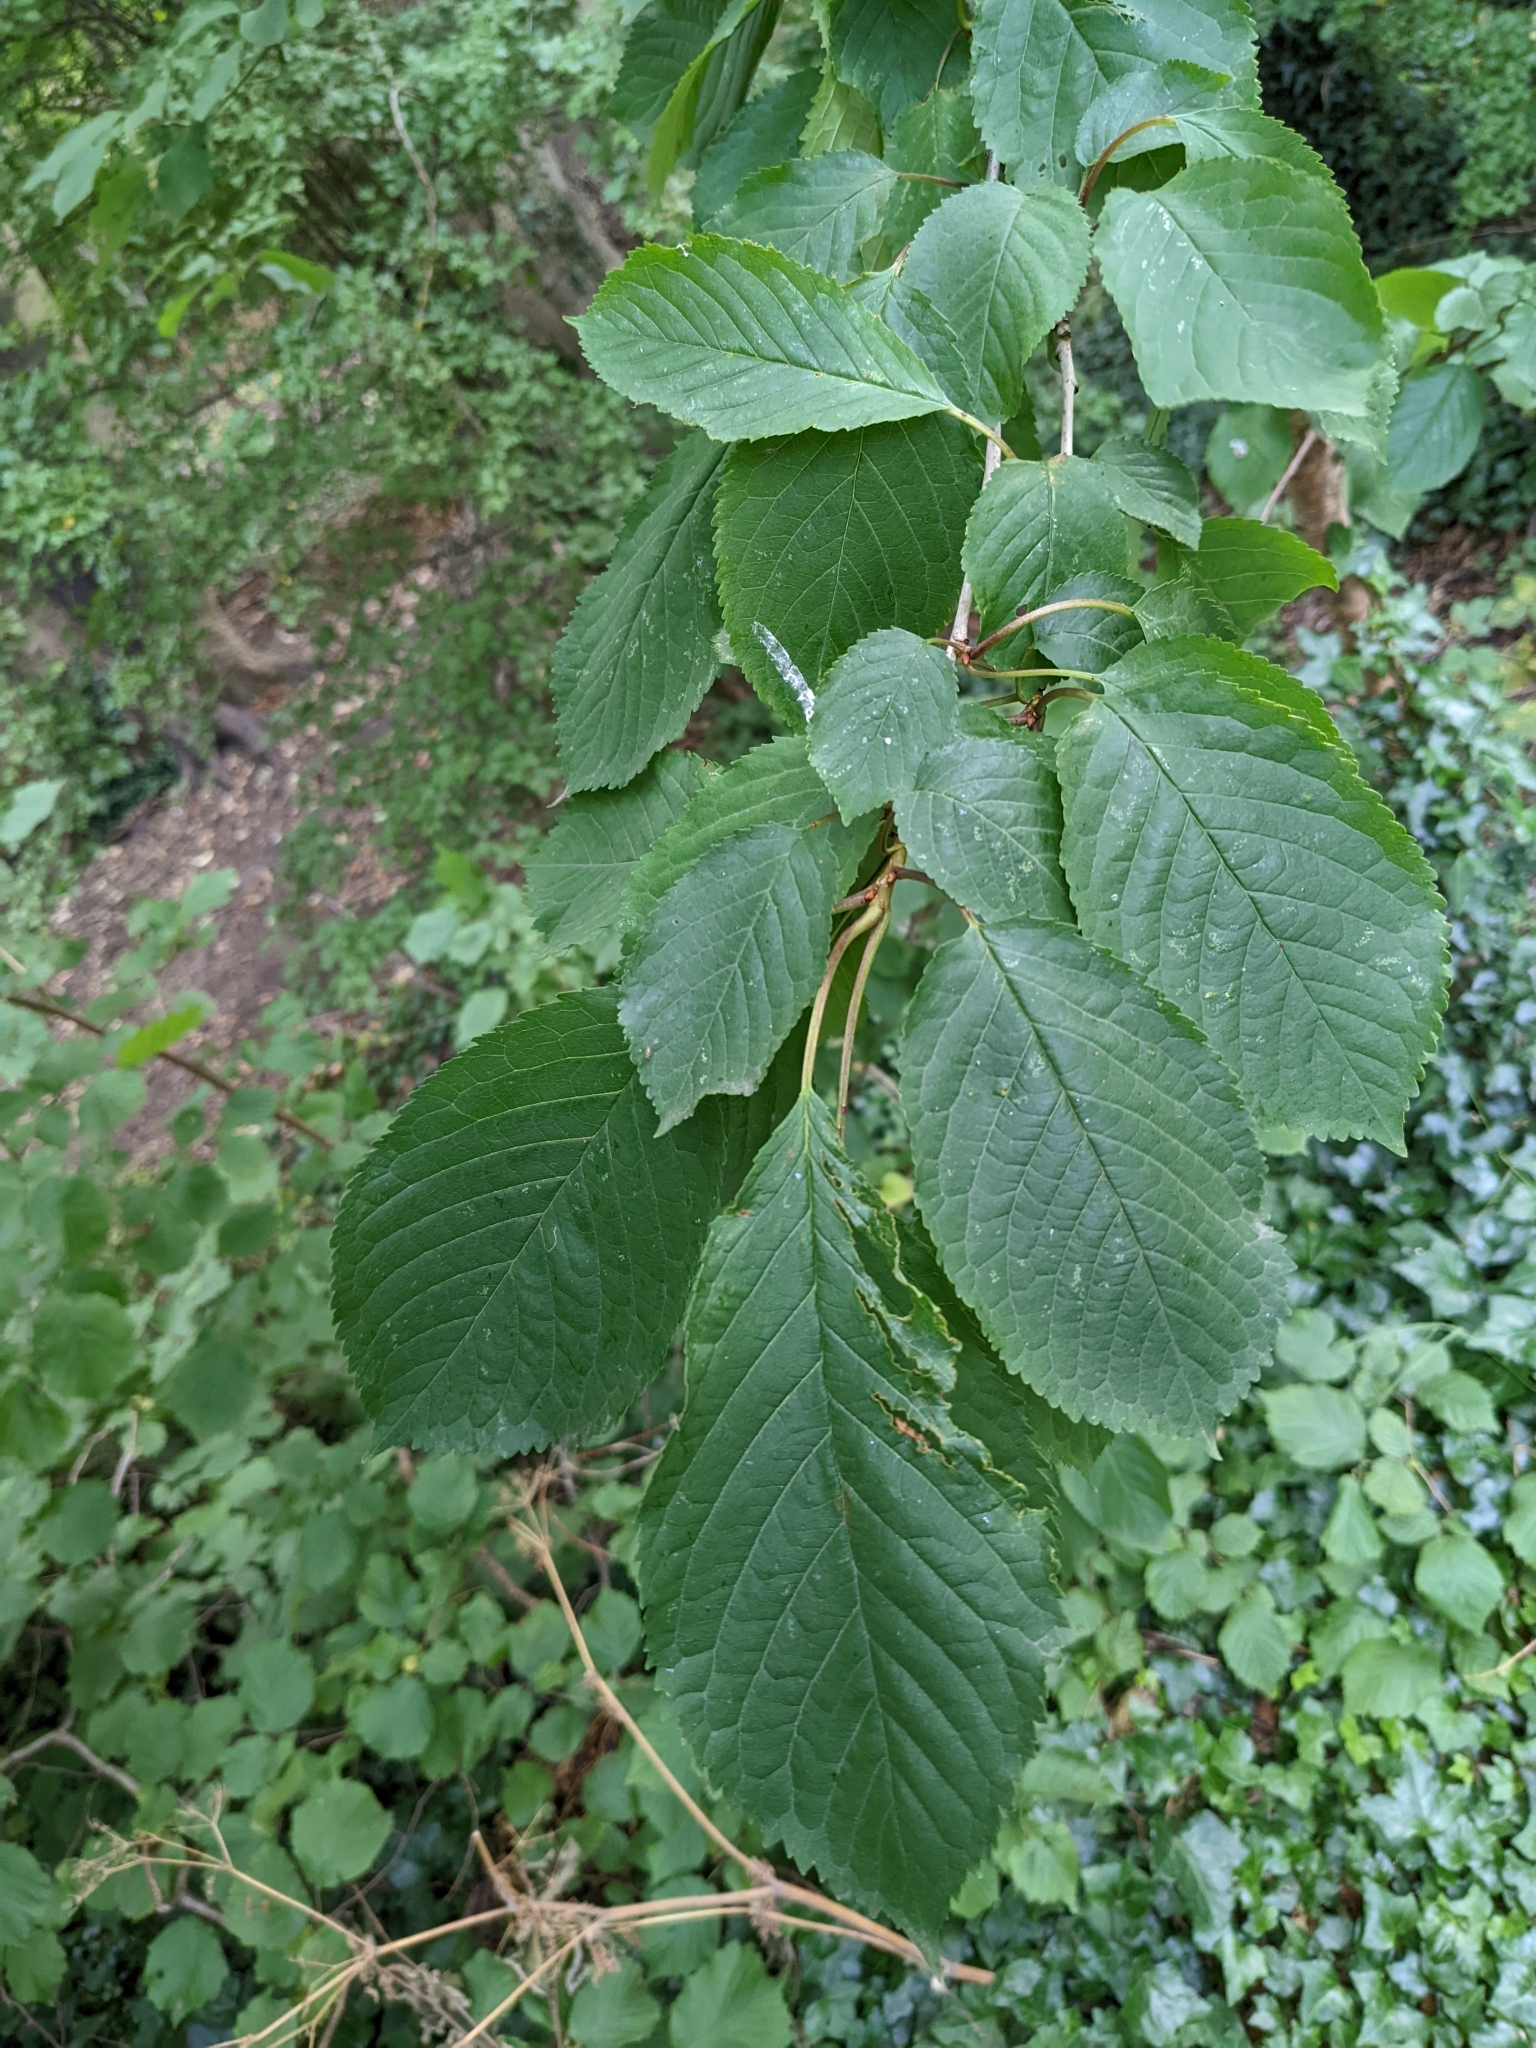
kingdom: Plantae
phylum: Tracheophyta
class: Magnoliopsida
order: Rosales
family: Rosaceae
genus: Prunus
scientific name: Prunus avium
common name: Sweet cherry
